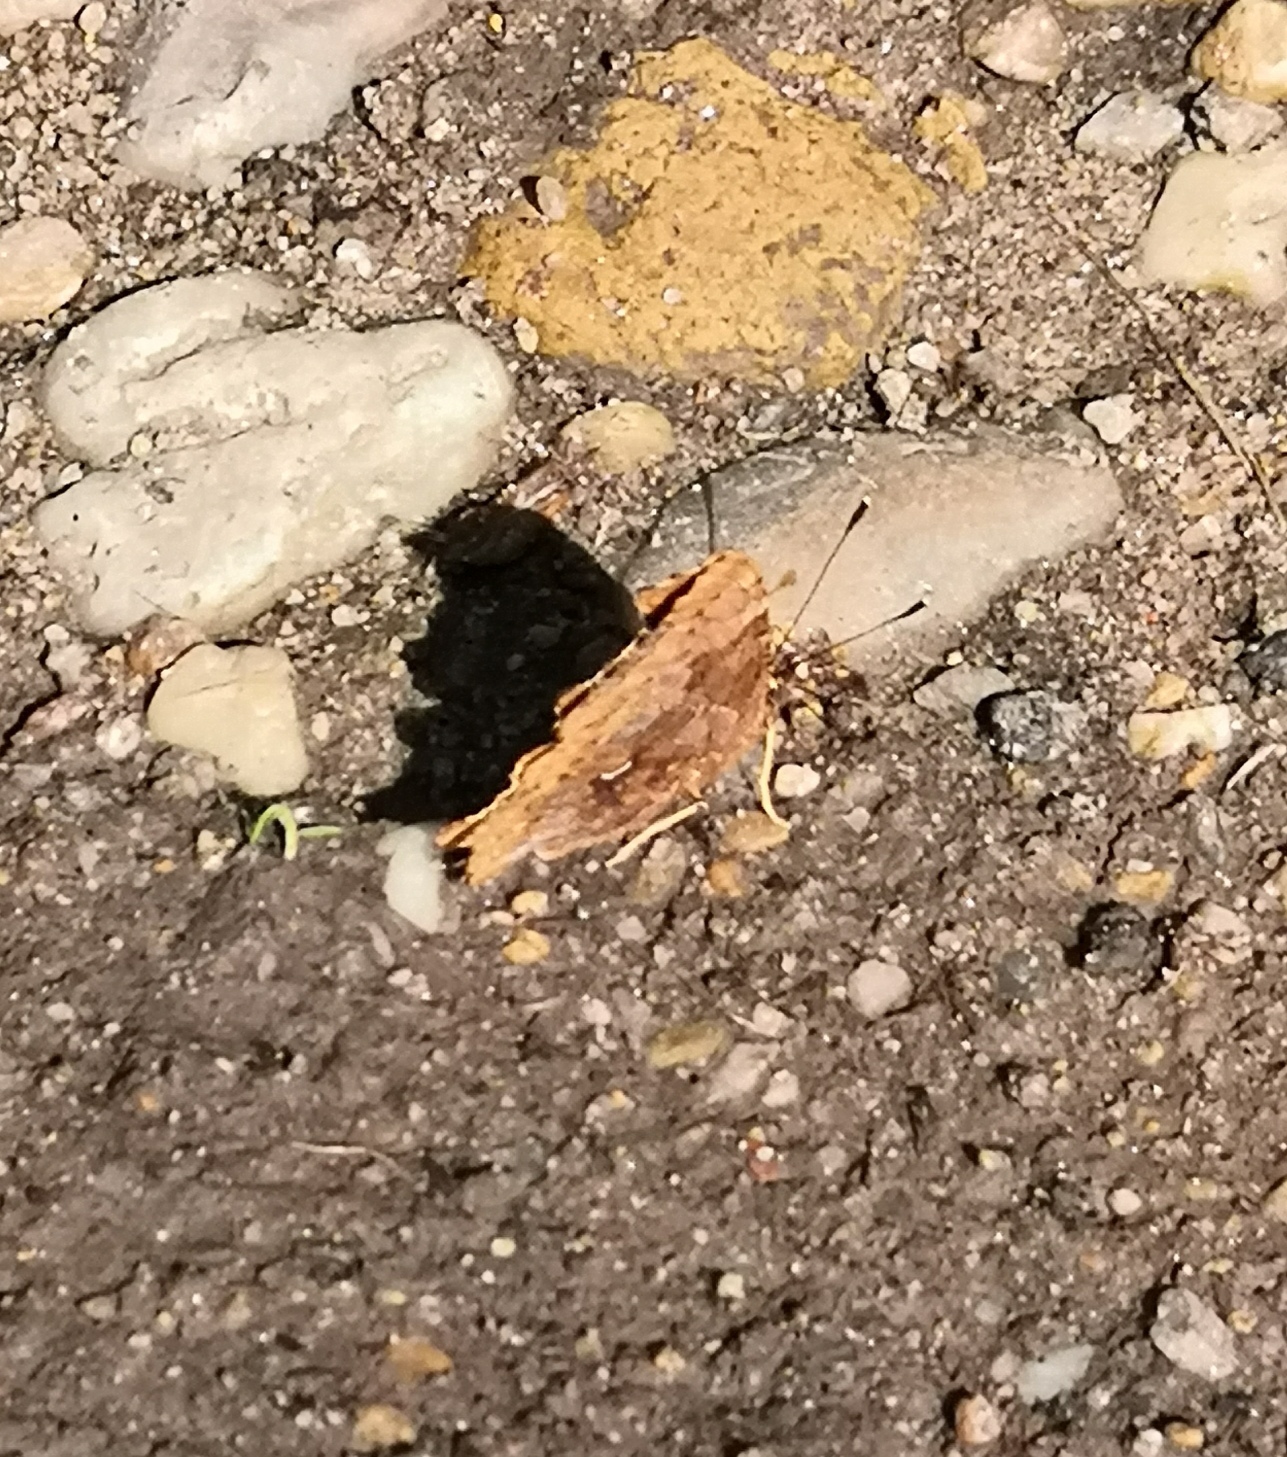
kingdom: Animalia
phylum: Arthropoda
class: Insecta
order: Lepidoptera
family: Nymphalidae
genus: Polygonia
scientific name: Polygonia c-album
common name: Comma
